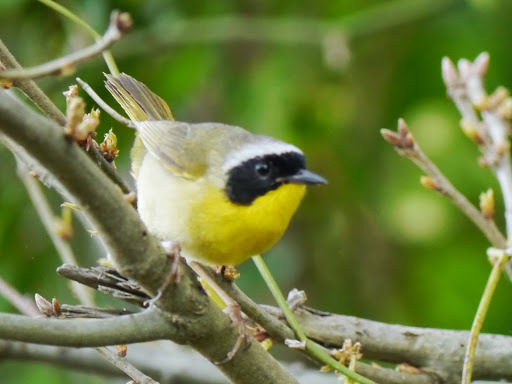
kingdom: Animalia
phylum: Chordata
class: Aves
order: Passeriformes
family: Parulidae
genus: Geothlypis
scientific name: Geothlypis trichas
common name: Common yellowthroat
